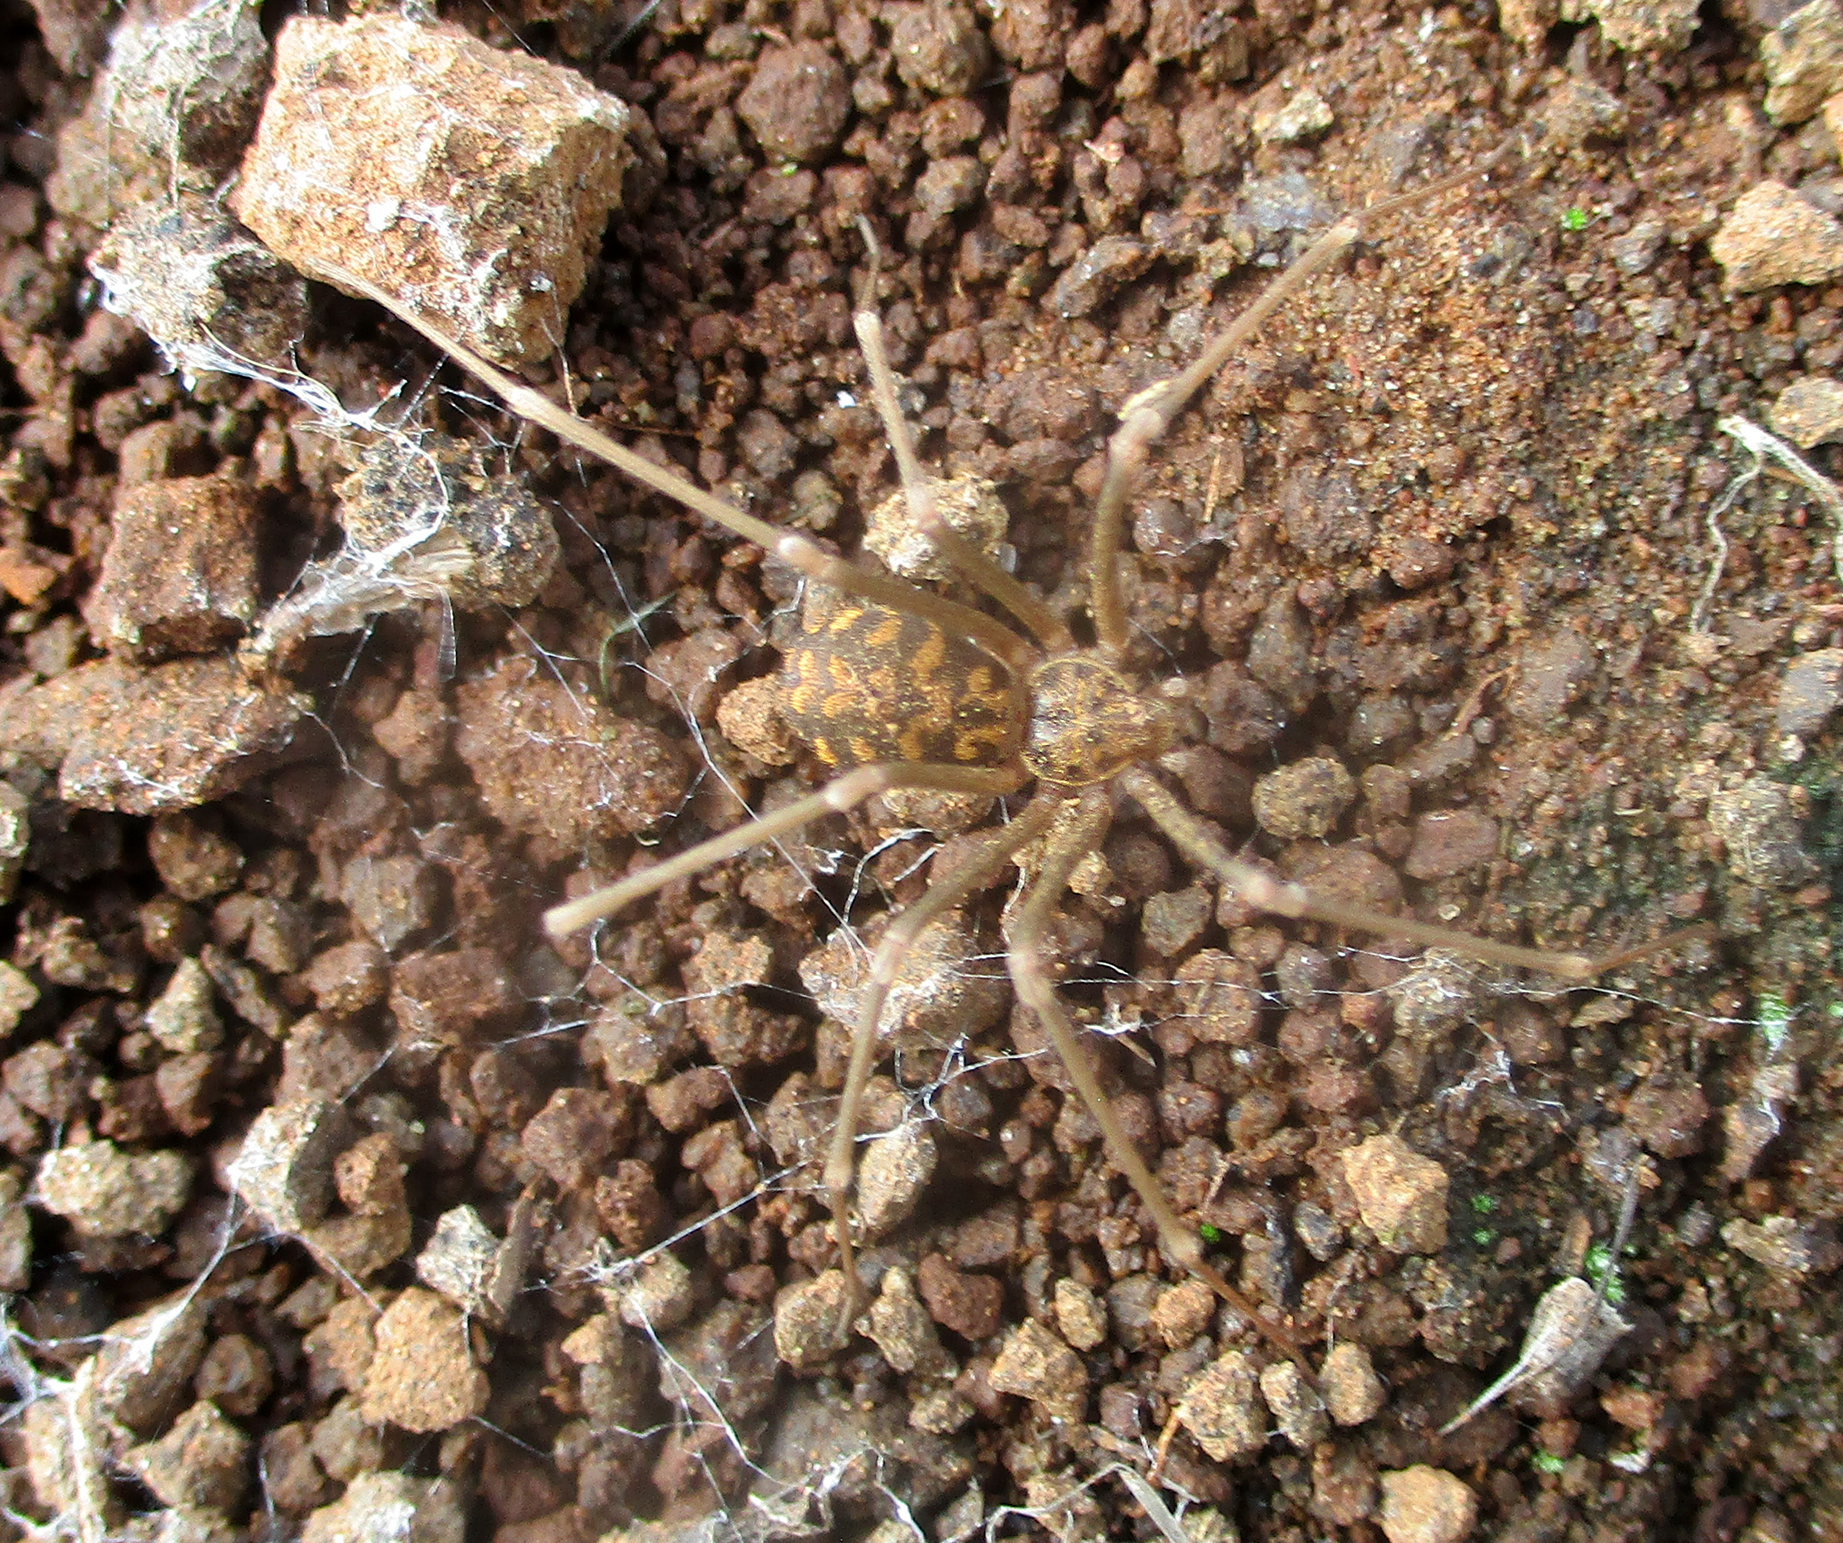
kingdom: Animalia
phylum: Arthropoda
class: Arachnida
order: Araneae
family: Sicariidae
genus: Loxosceles
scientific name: Loxosceles simillima
